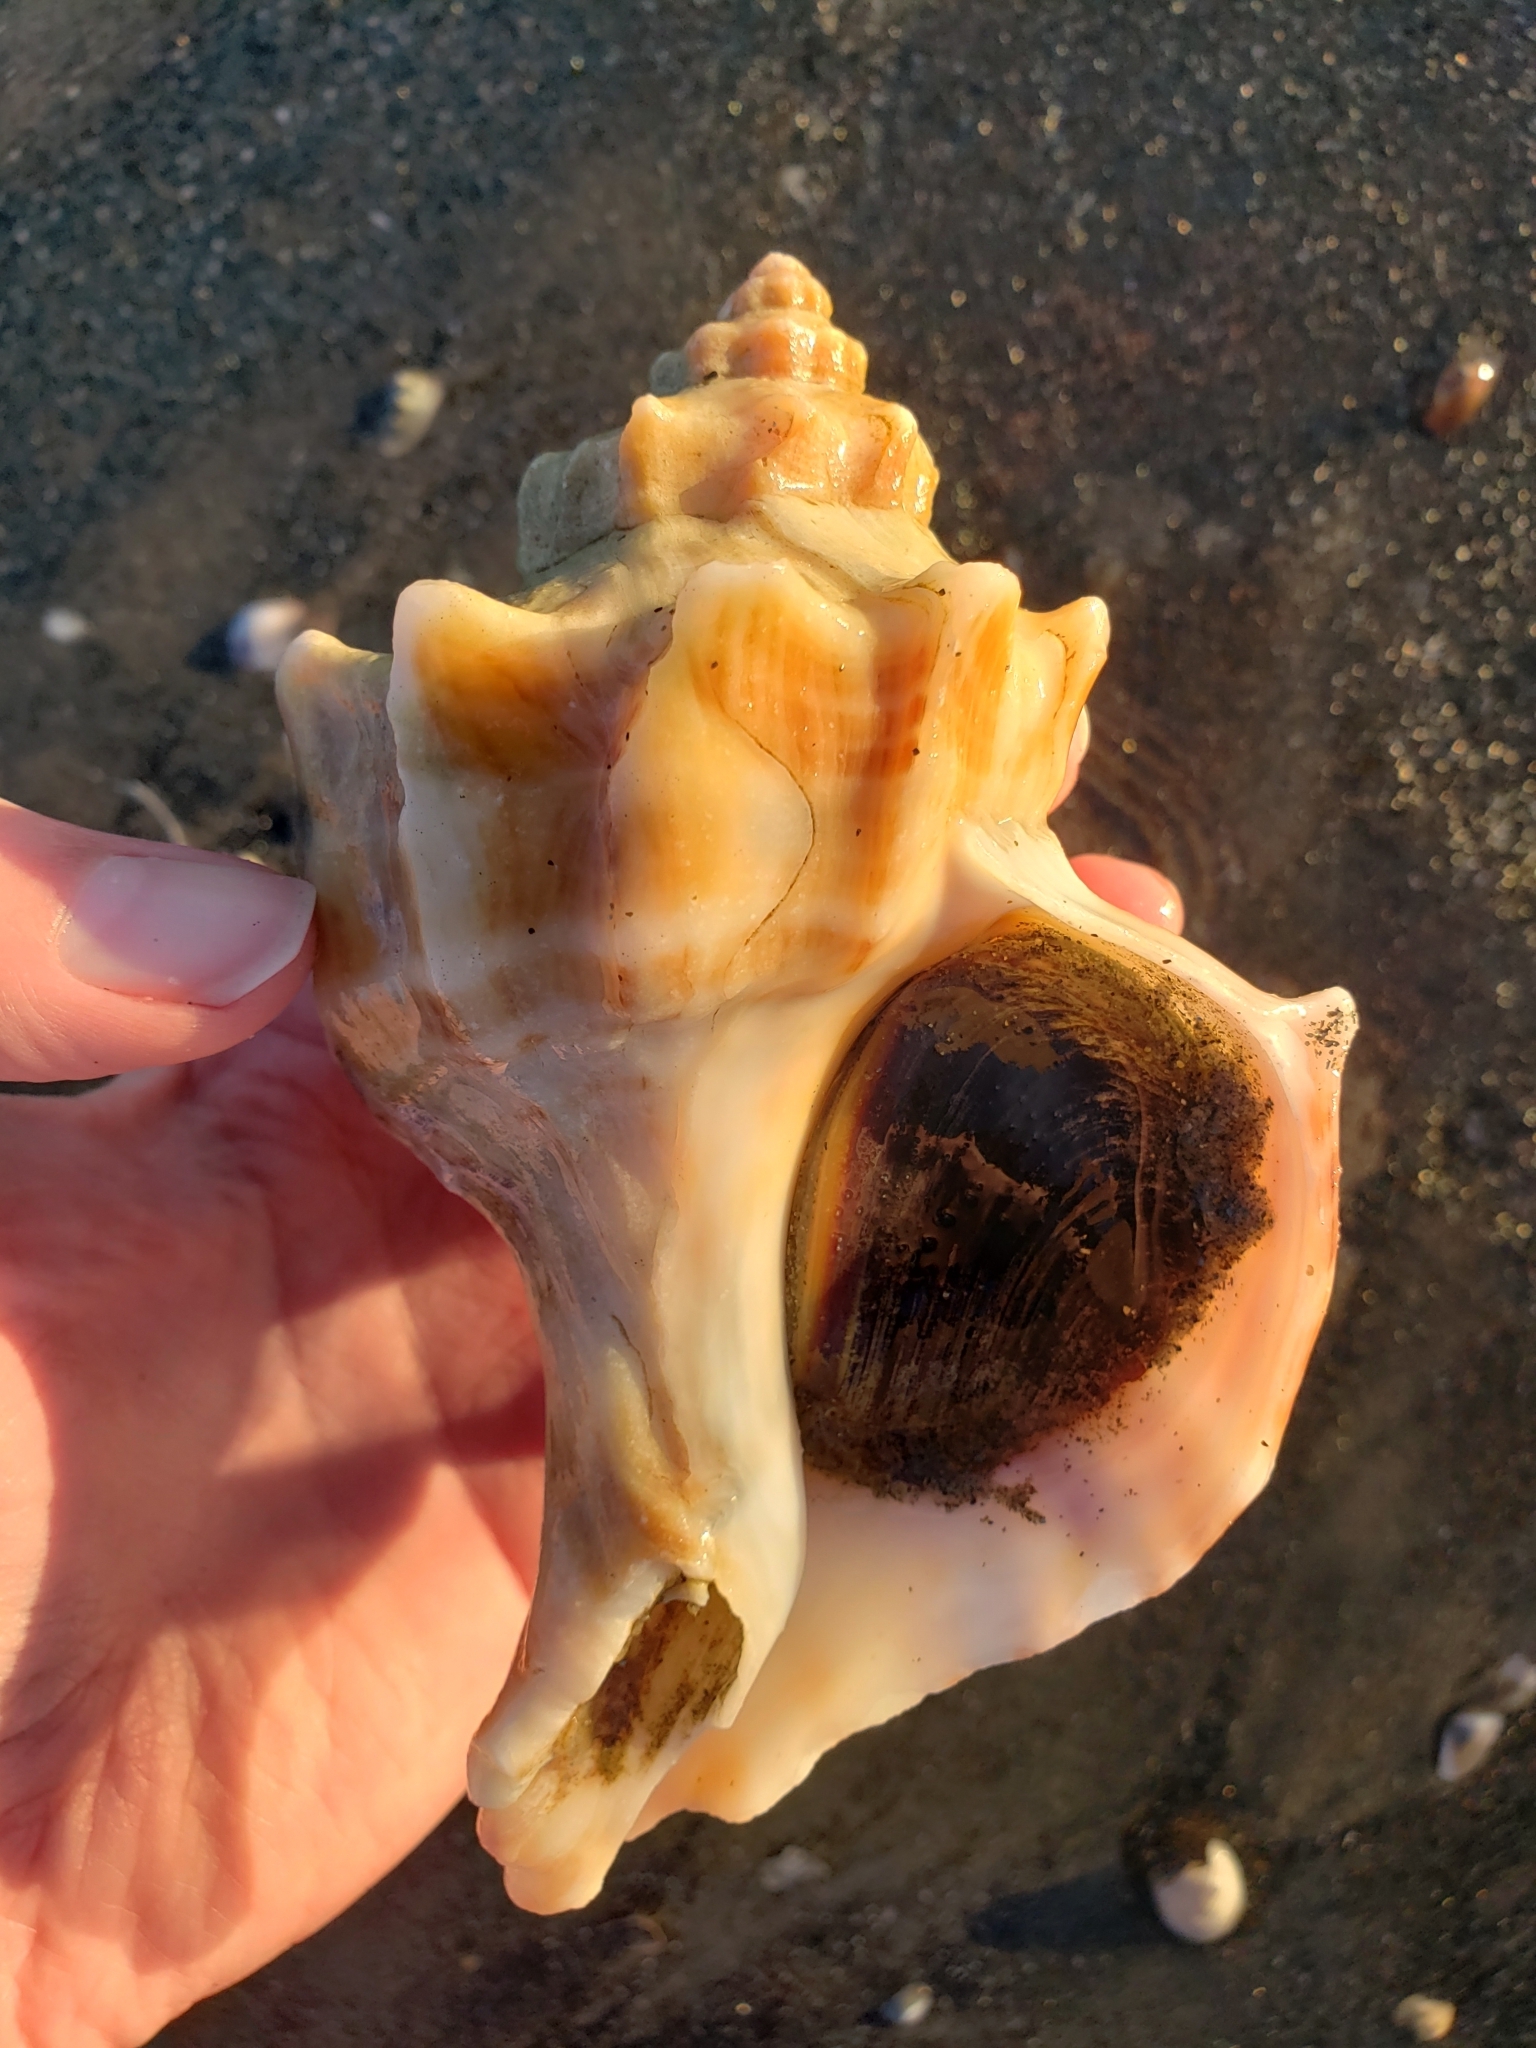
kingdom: Animalia
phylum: Mollusca
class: Gastropoda
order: Neogastropoda
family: Muricidae
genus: Forreria
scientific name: Forreria belcheri
